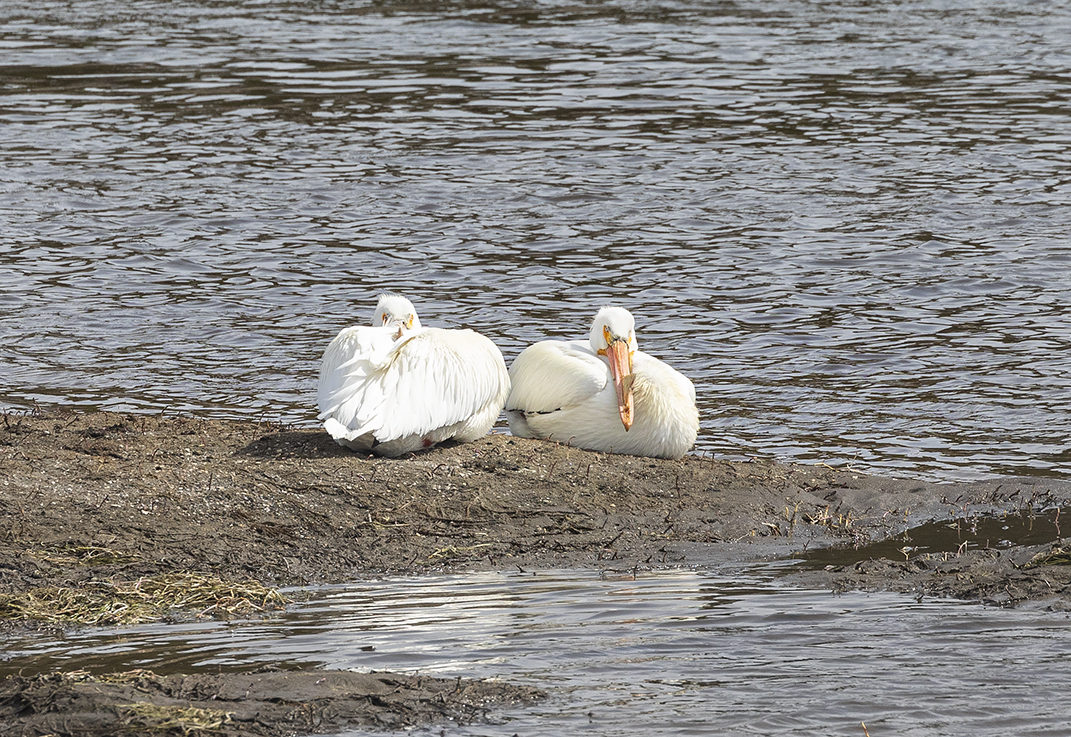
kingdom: Animalia
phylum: Chordata
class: Aves
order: Pelecaniformes
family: Pelecanidae
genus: Pelecanus
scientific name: Pelecanus erythrorhynchos
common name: American white pelican
